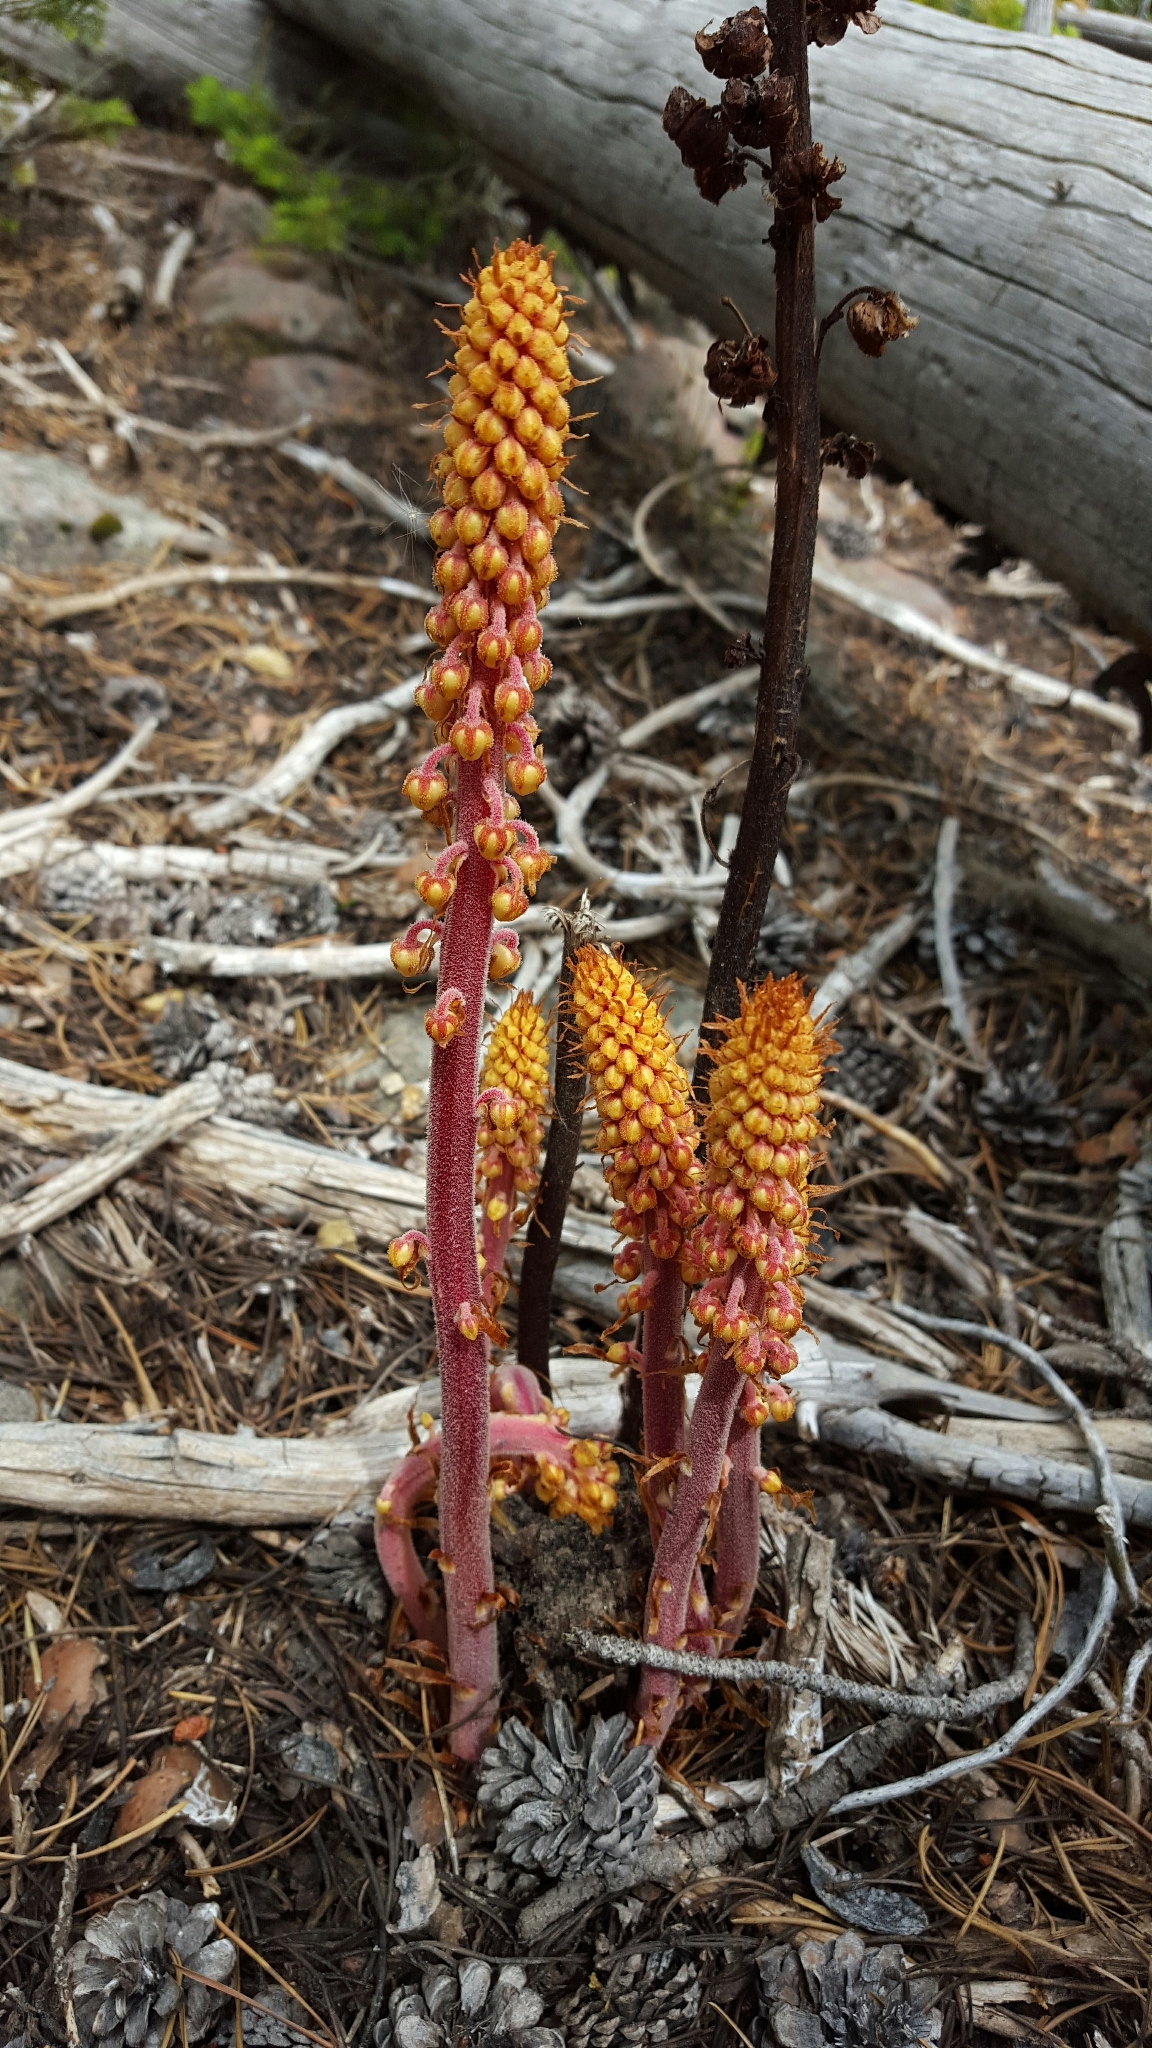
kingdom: Plantae
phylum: Tracheophyta
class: Magnoliopsida
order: Ericales
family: Ericaceae
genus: Pterospora
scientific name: Pterospora andromedea
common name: Giant bird's-nest
